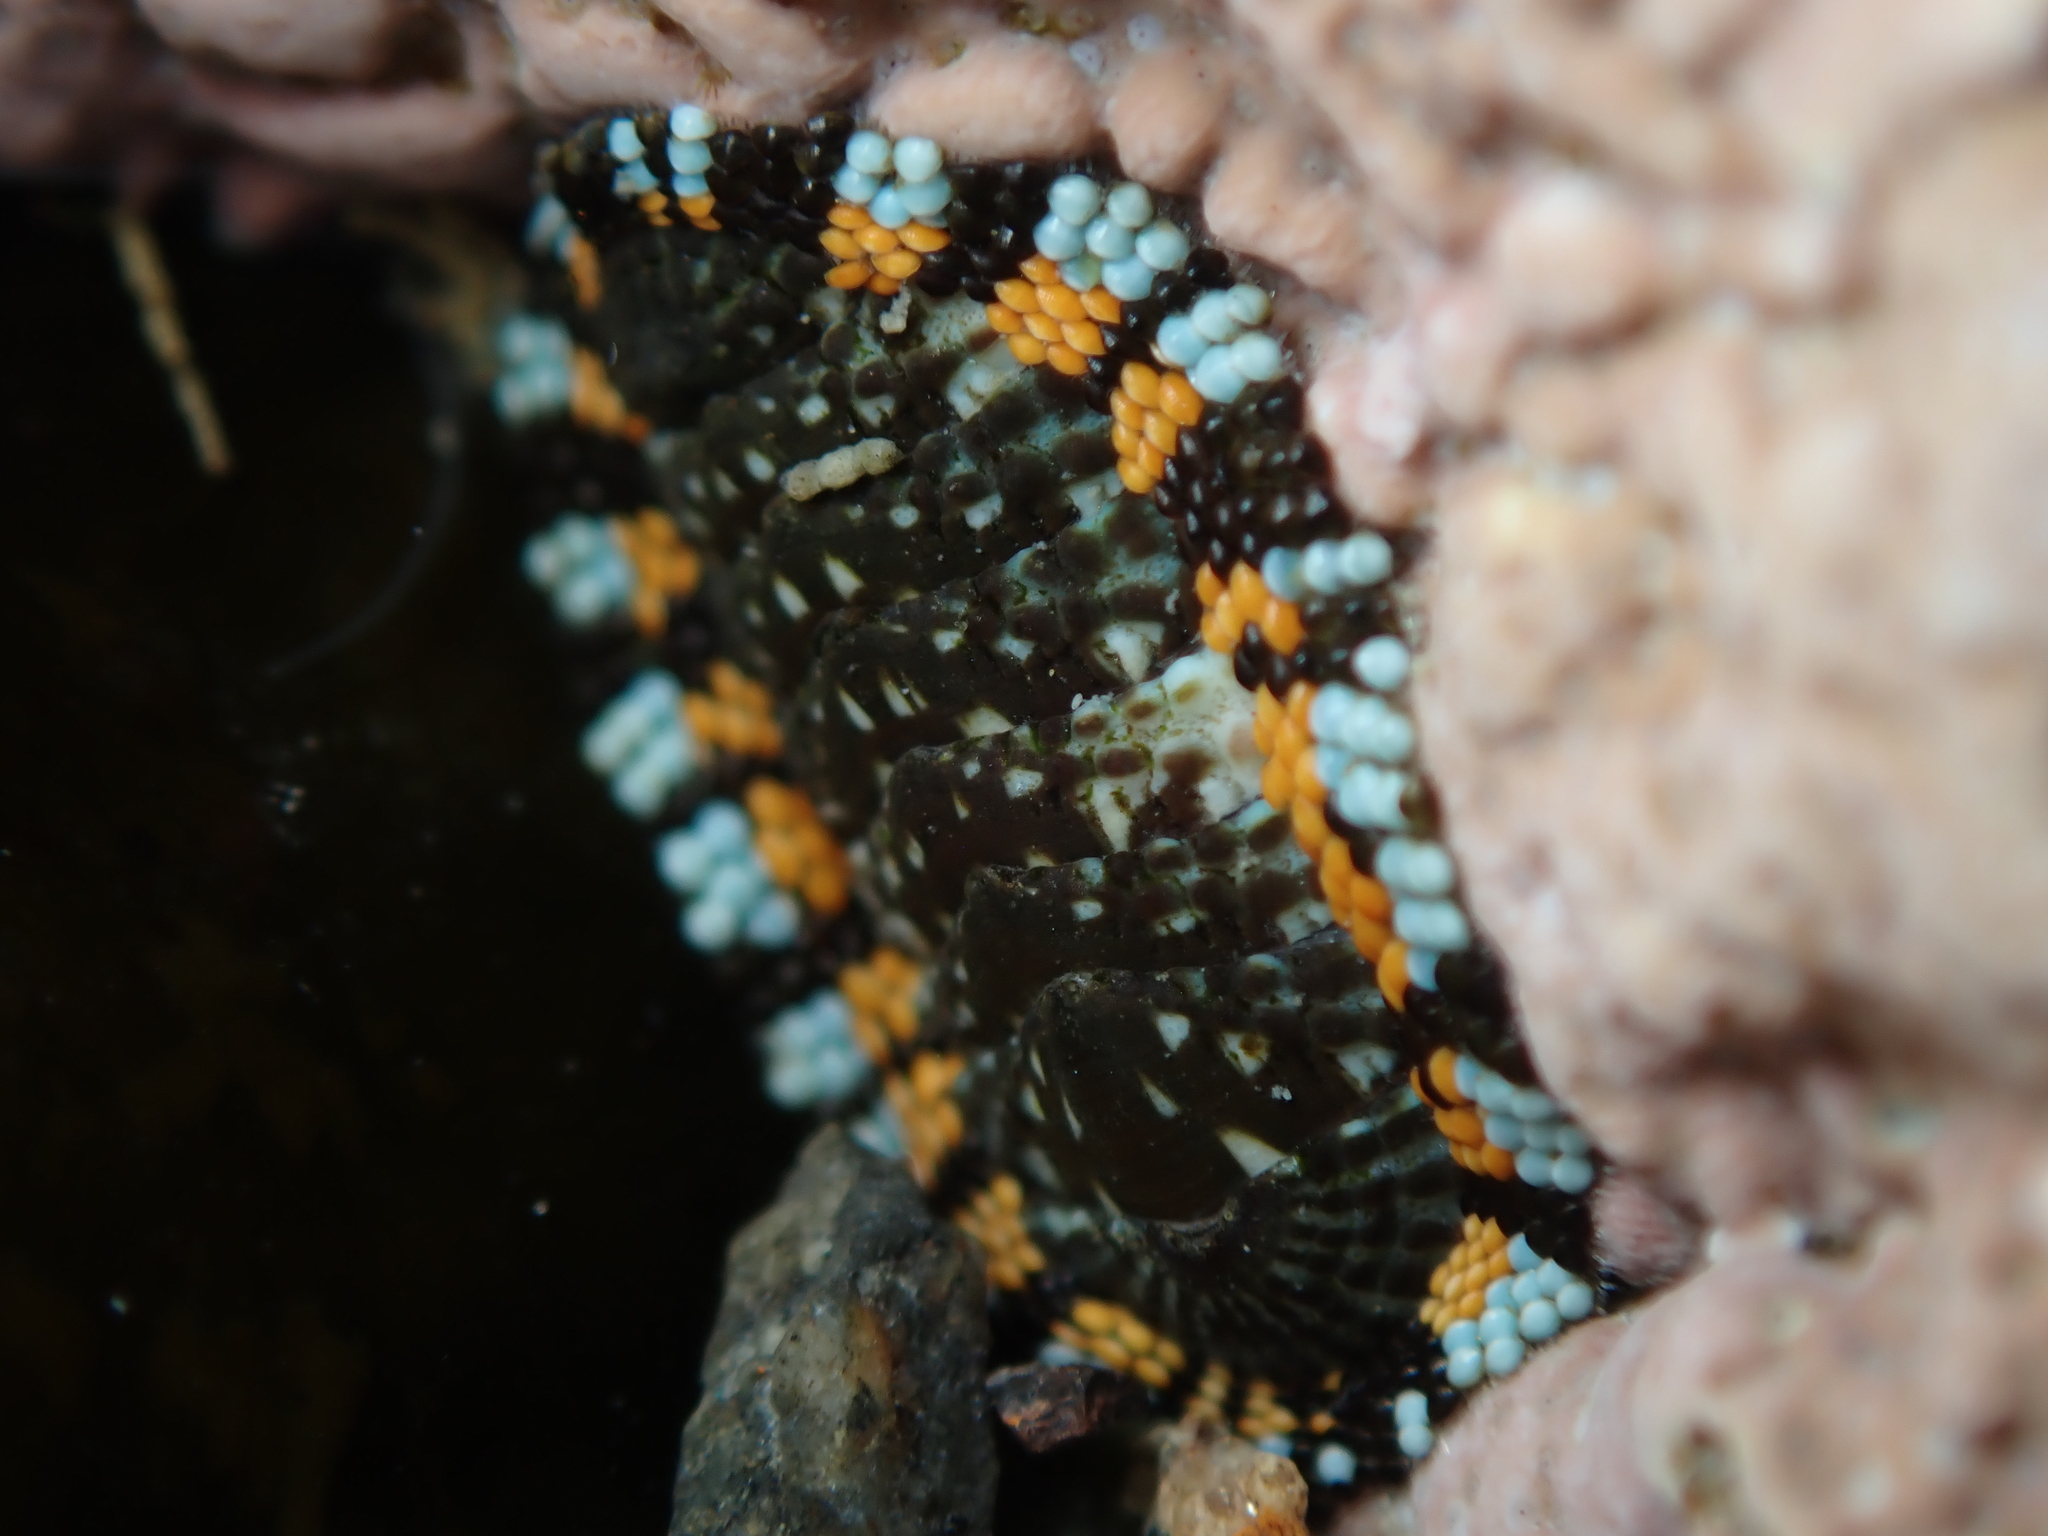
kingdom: Animalia
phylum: Mollusca
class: Polyplacophora
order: Chitonida
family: Chitonidae
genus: Sypharochiton
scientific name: Sypharochiton sinclairi
